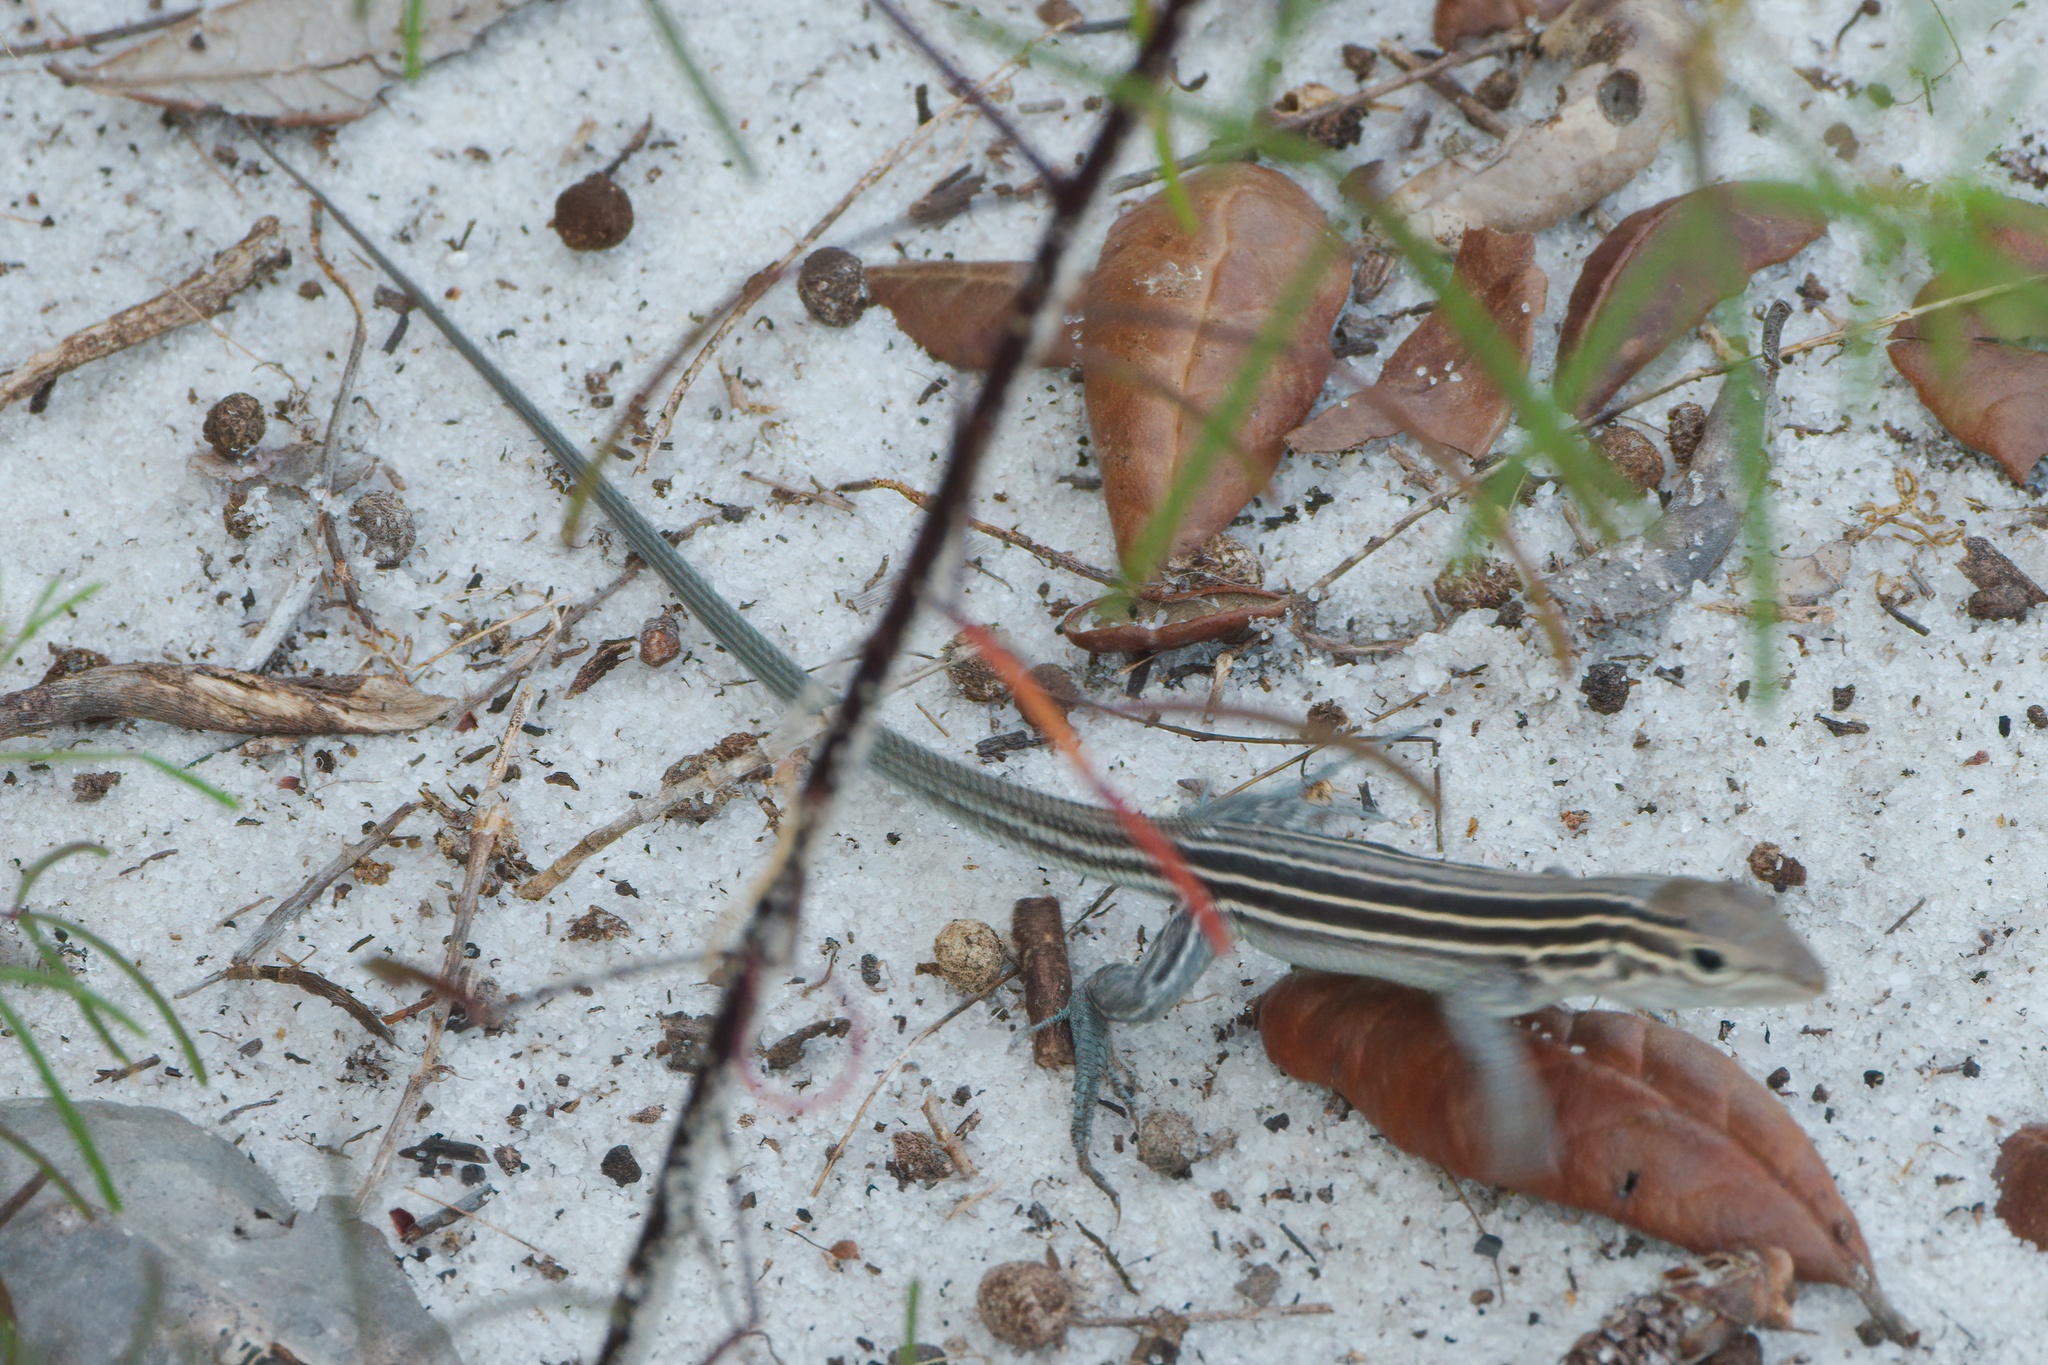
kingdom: Animalia
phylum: Chordata
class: Squamata
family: Teiidae
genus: Aspidoscelis
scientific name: Aspidoscelis sexlineatus
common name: Six-lined racerunner
